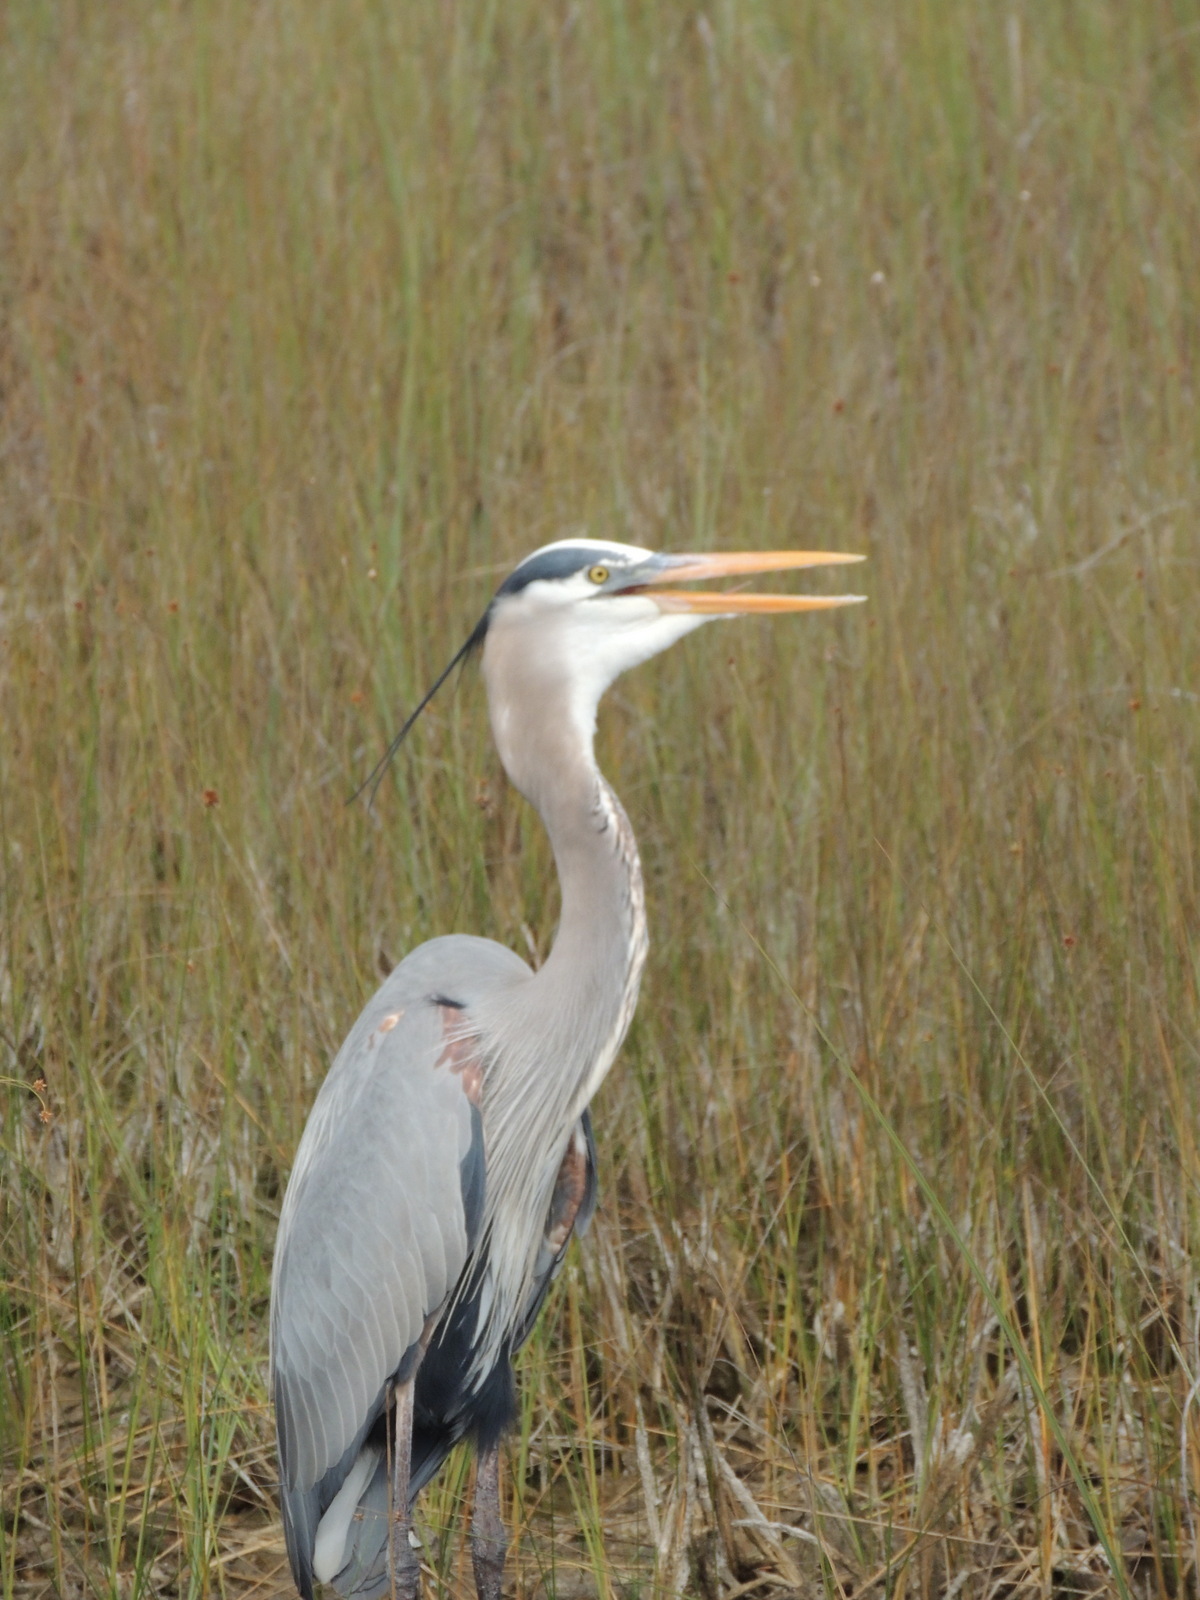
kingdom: Animalia
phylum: Chordata
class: Aves
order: Pelecaniformes
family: Ardeidae
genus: Ardea
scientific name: Ardea herodias
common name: Great blue heron
